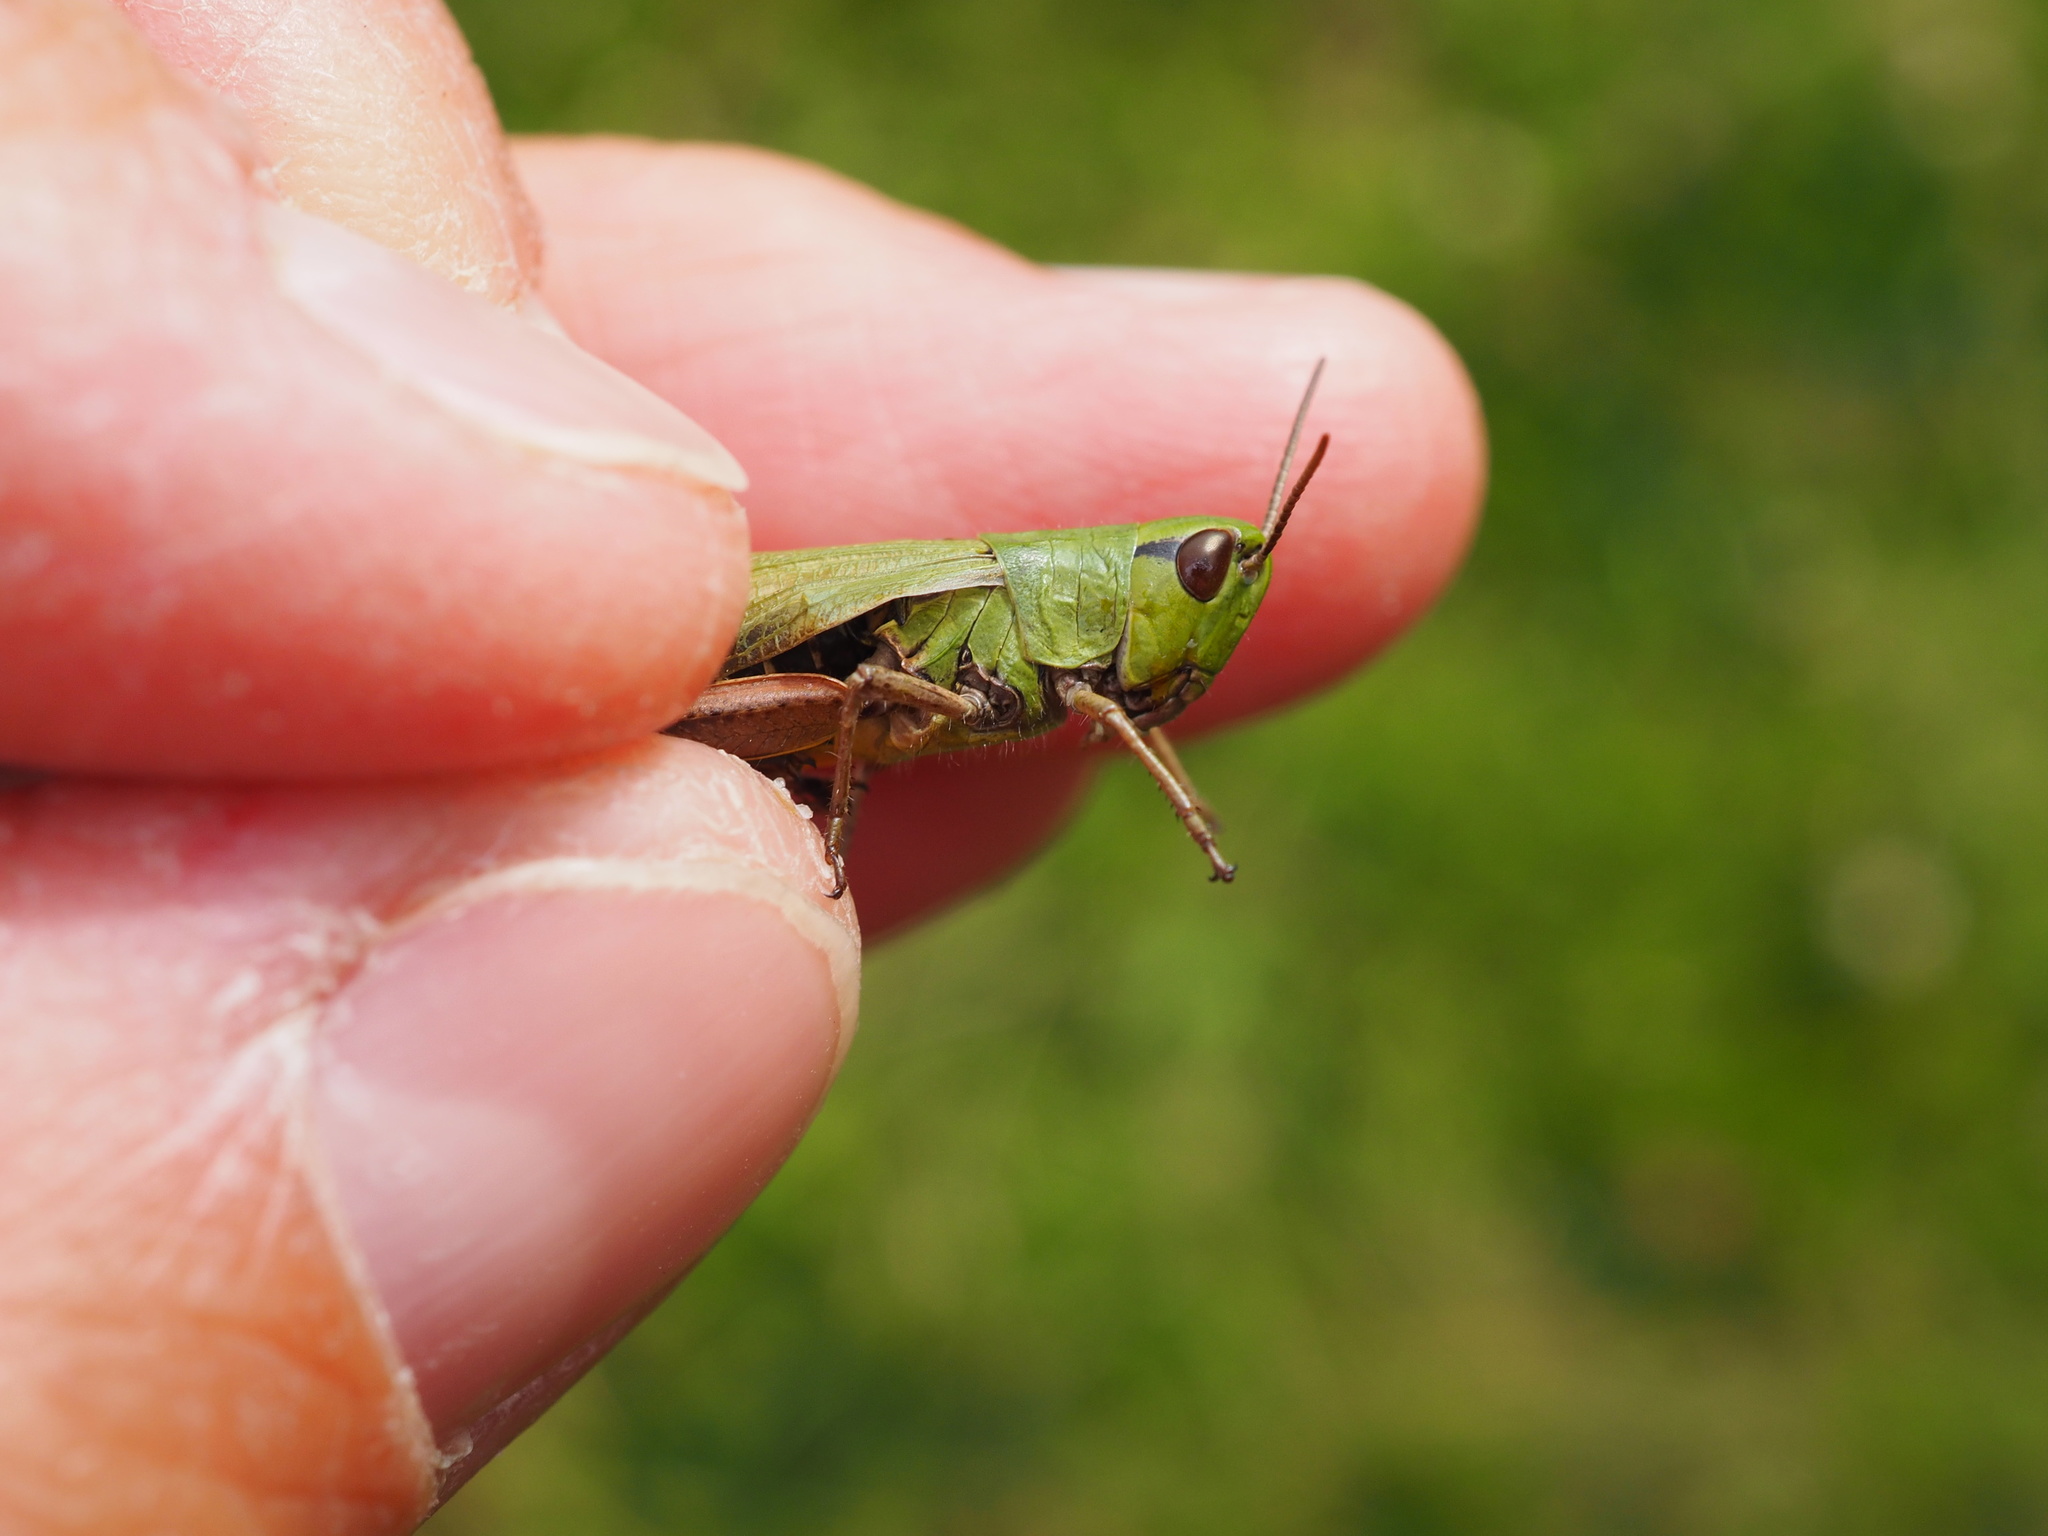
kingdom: Animalia
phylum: Arthropoda
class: Insecta
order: Orthoptera
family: Acrididae
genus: Pseudochorthippus
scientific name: Pseudochorthippus parallelus
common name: Meadow grasshopper
